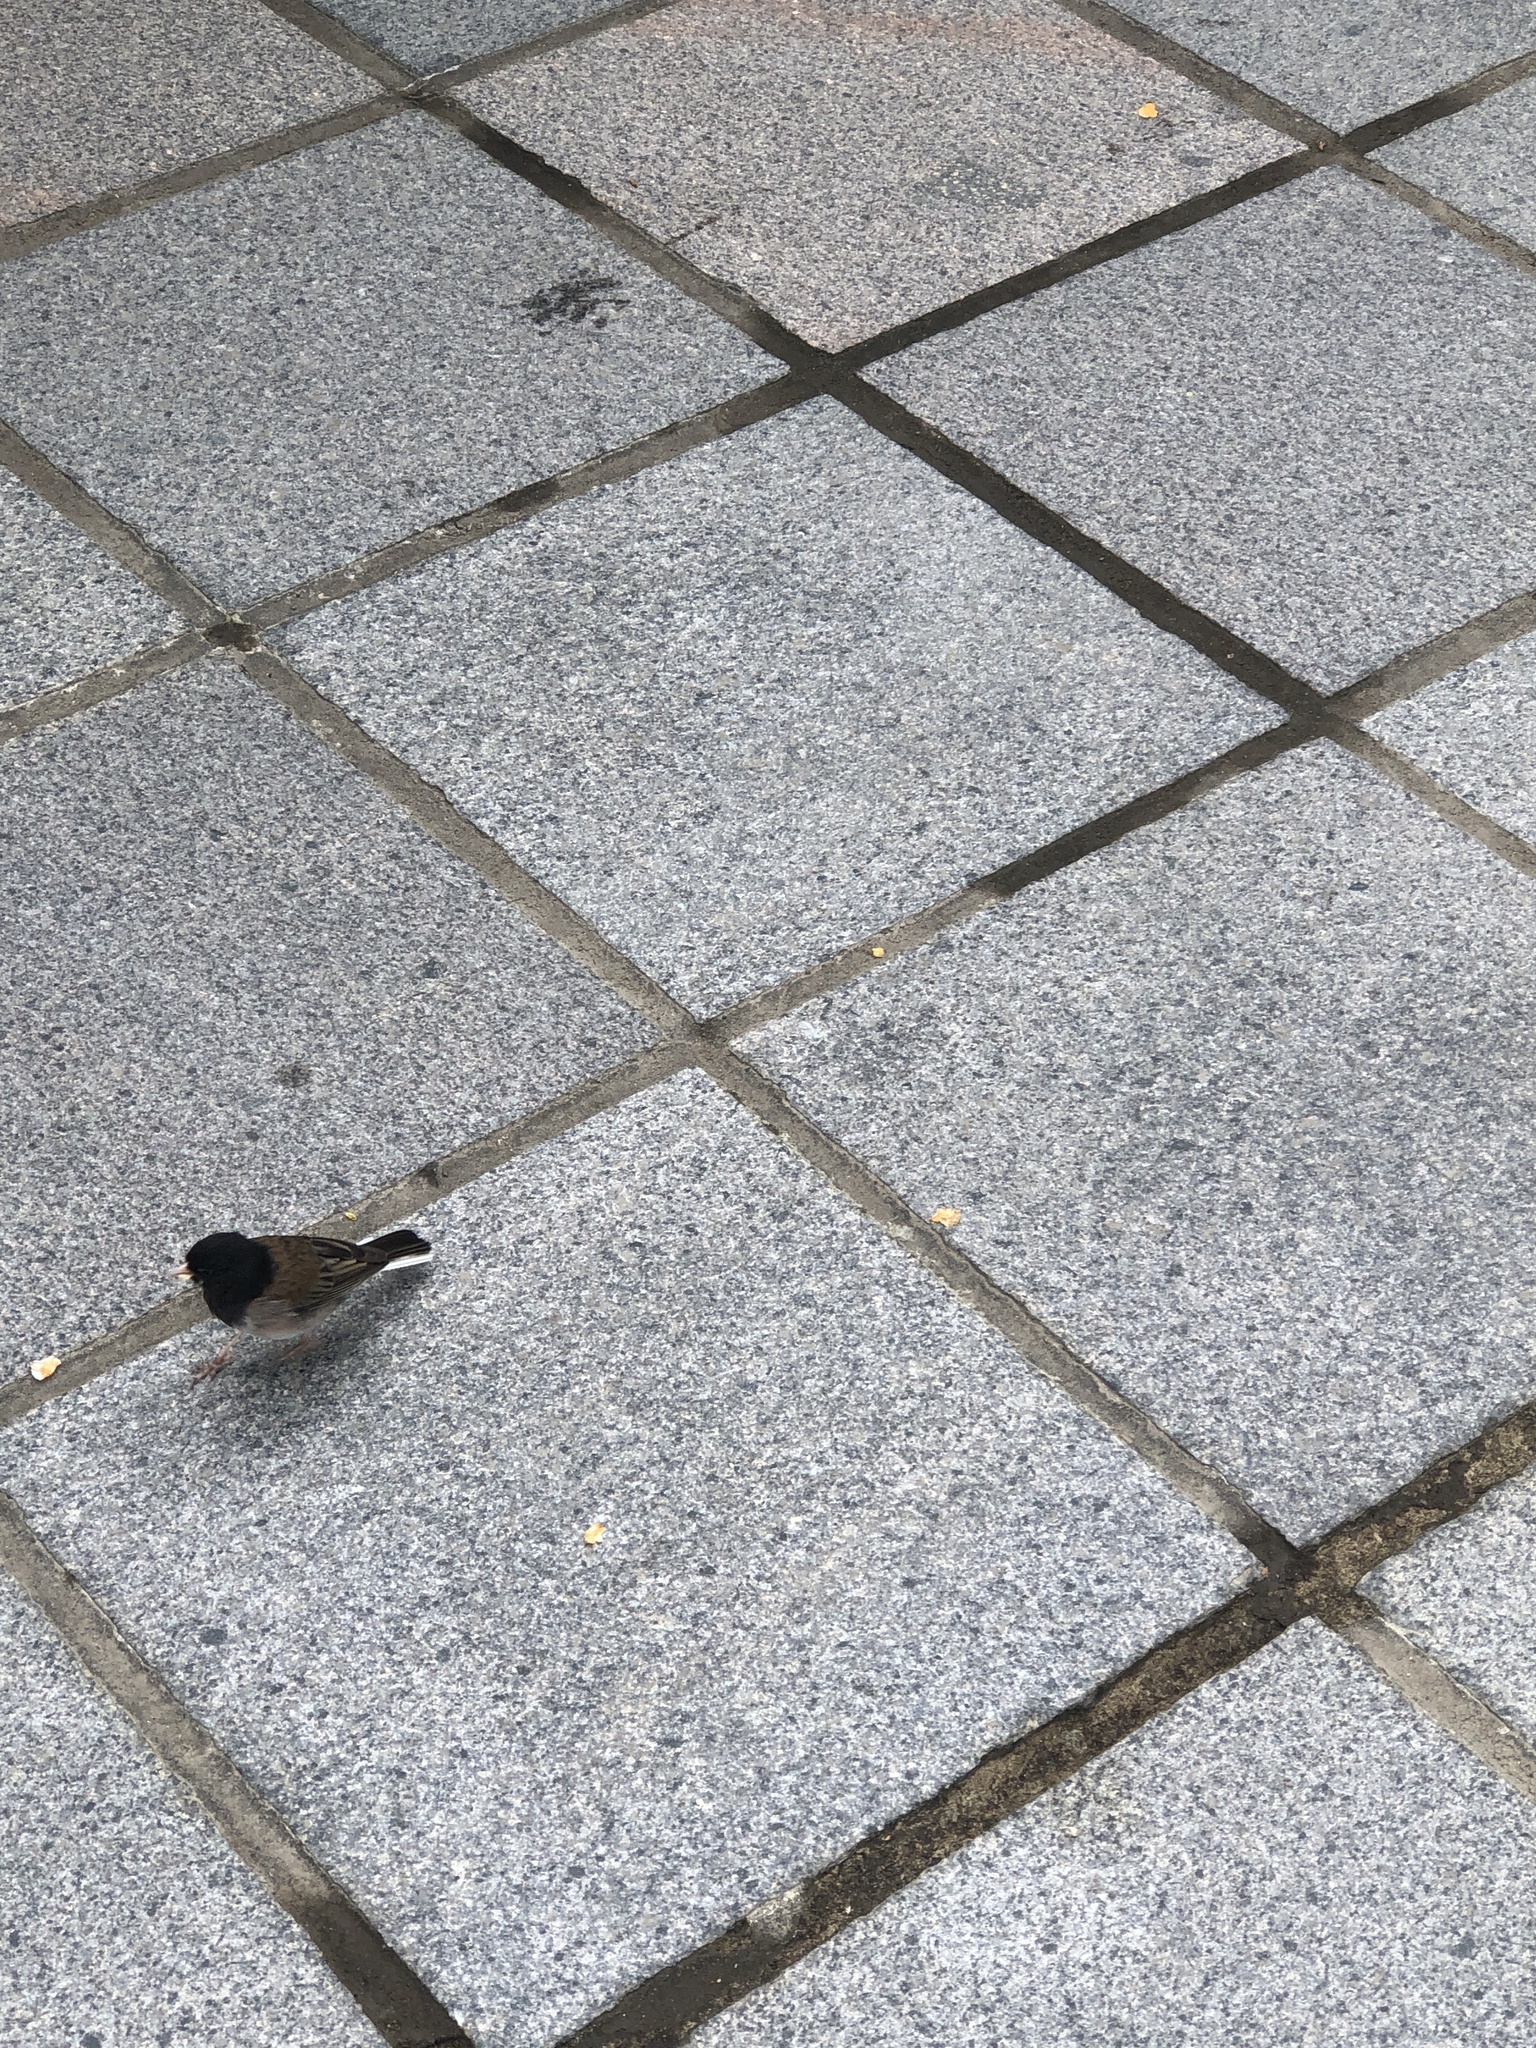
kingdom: Animalia
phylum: Chordata
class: Aves
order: Passeriformes
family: Passerellidae
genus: Junco
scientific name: Junco hyemalis
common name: Dark-eyed junco
